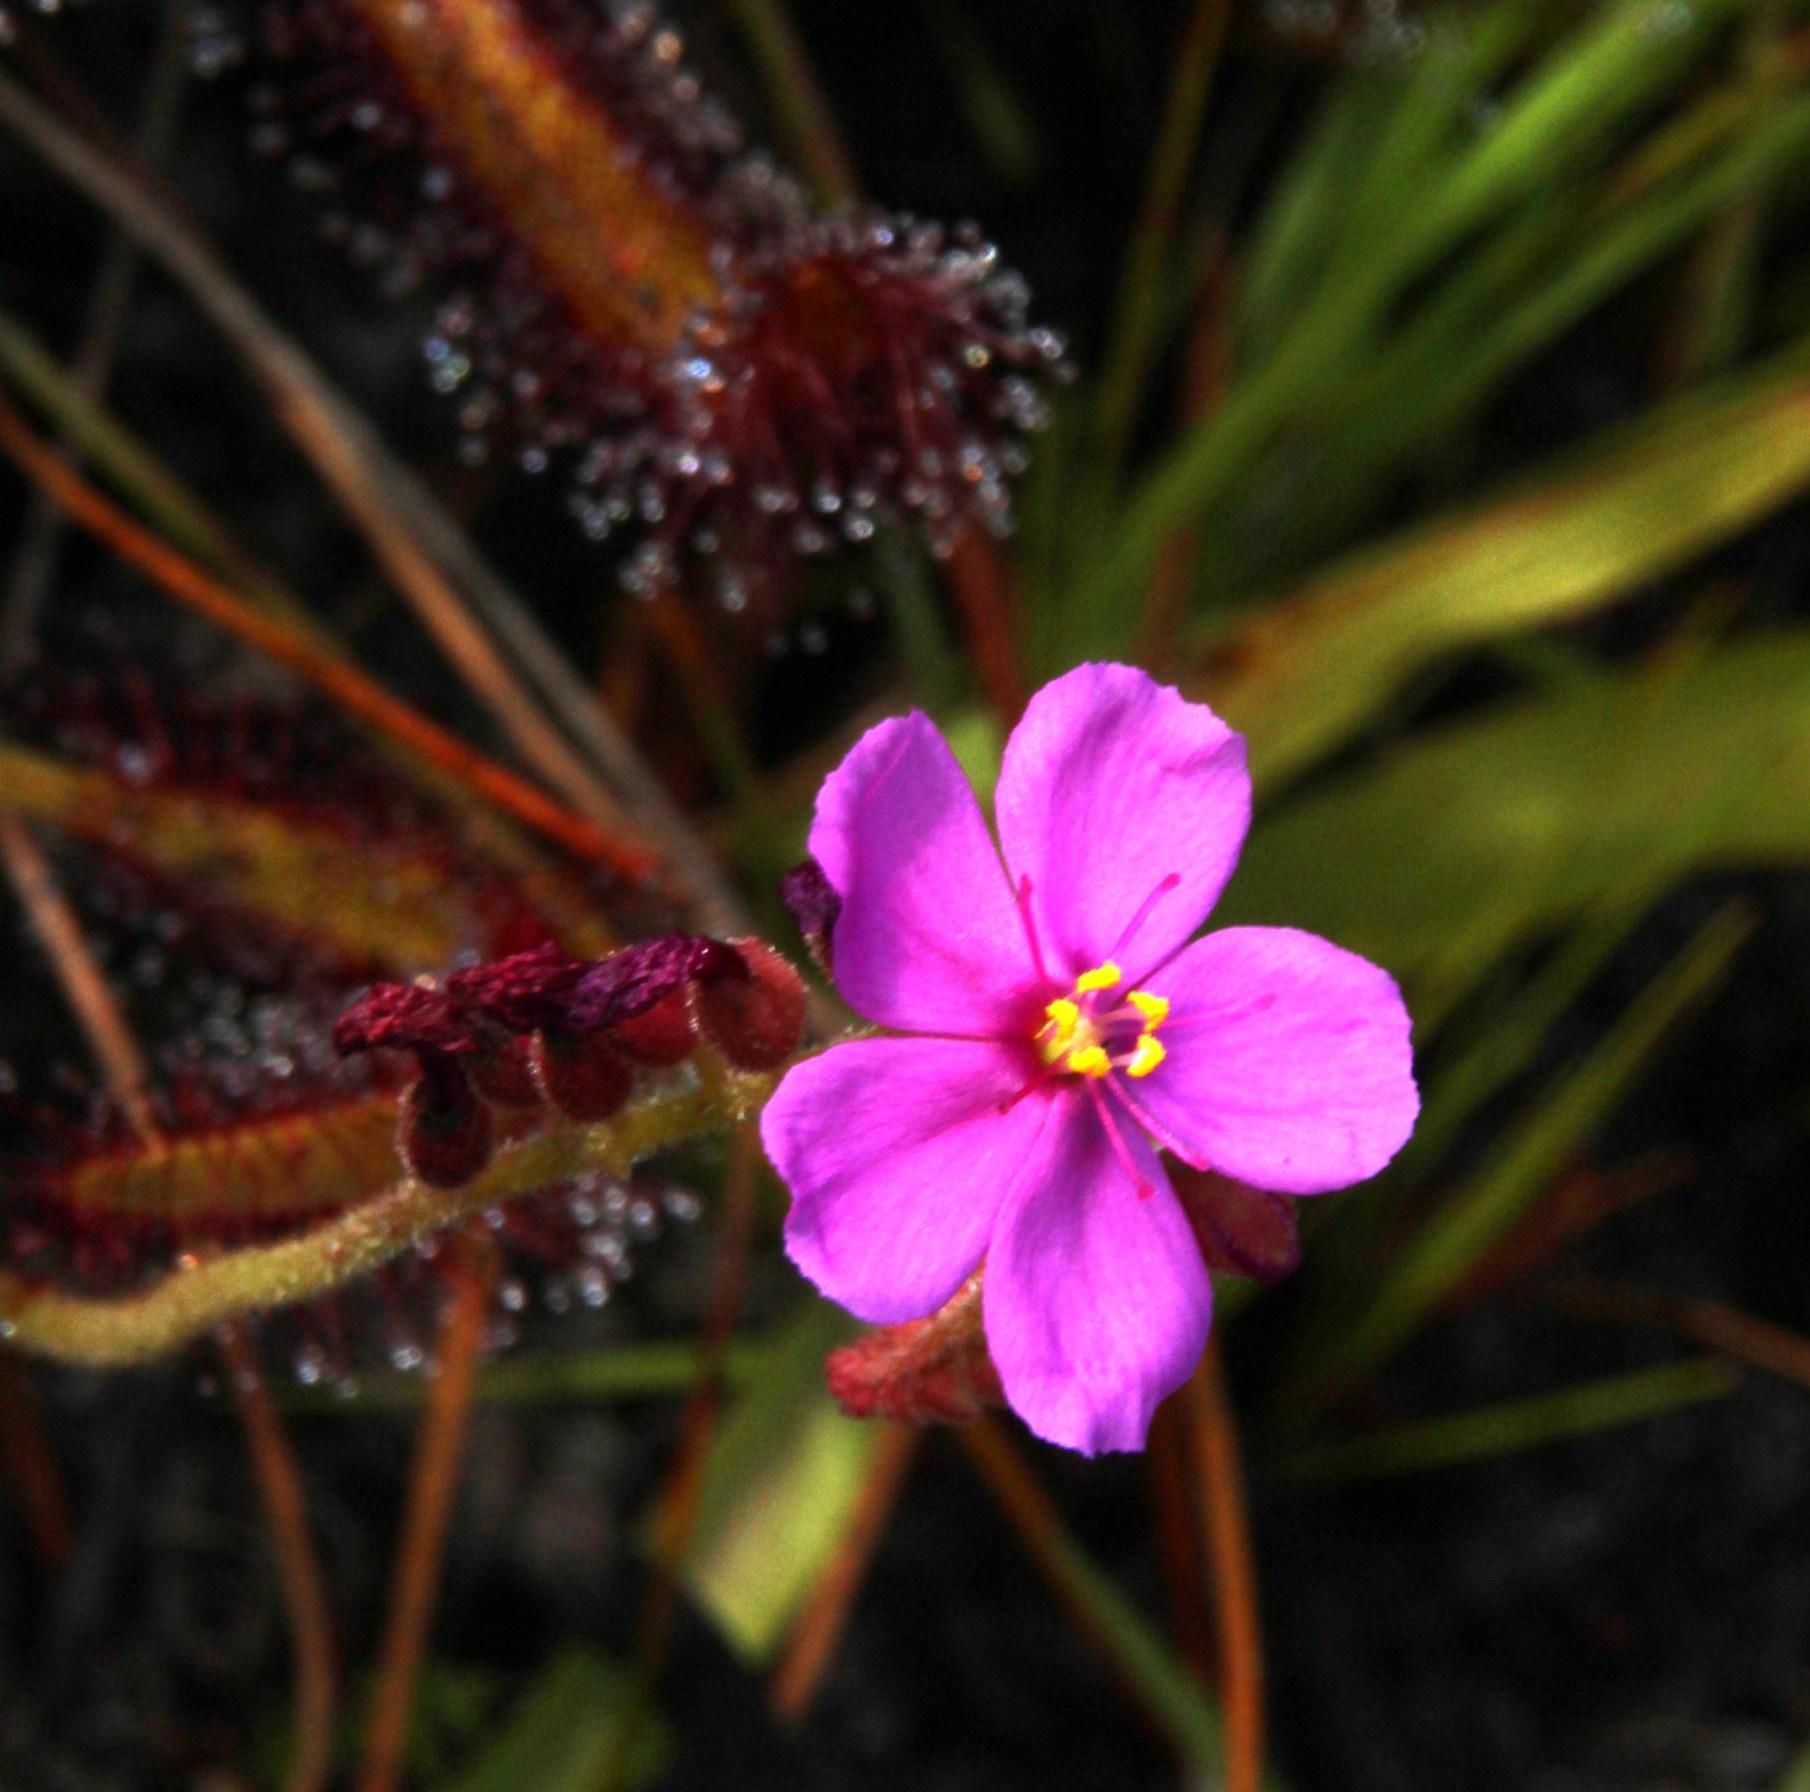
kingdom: Plantae
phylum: Tracheophyta
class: Magnoliopsida
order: Caryophyllales
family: Droseraceae
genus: Drosera
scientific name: Drosera capensis
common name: Cape sundew
